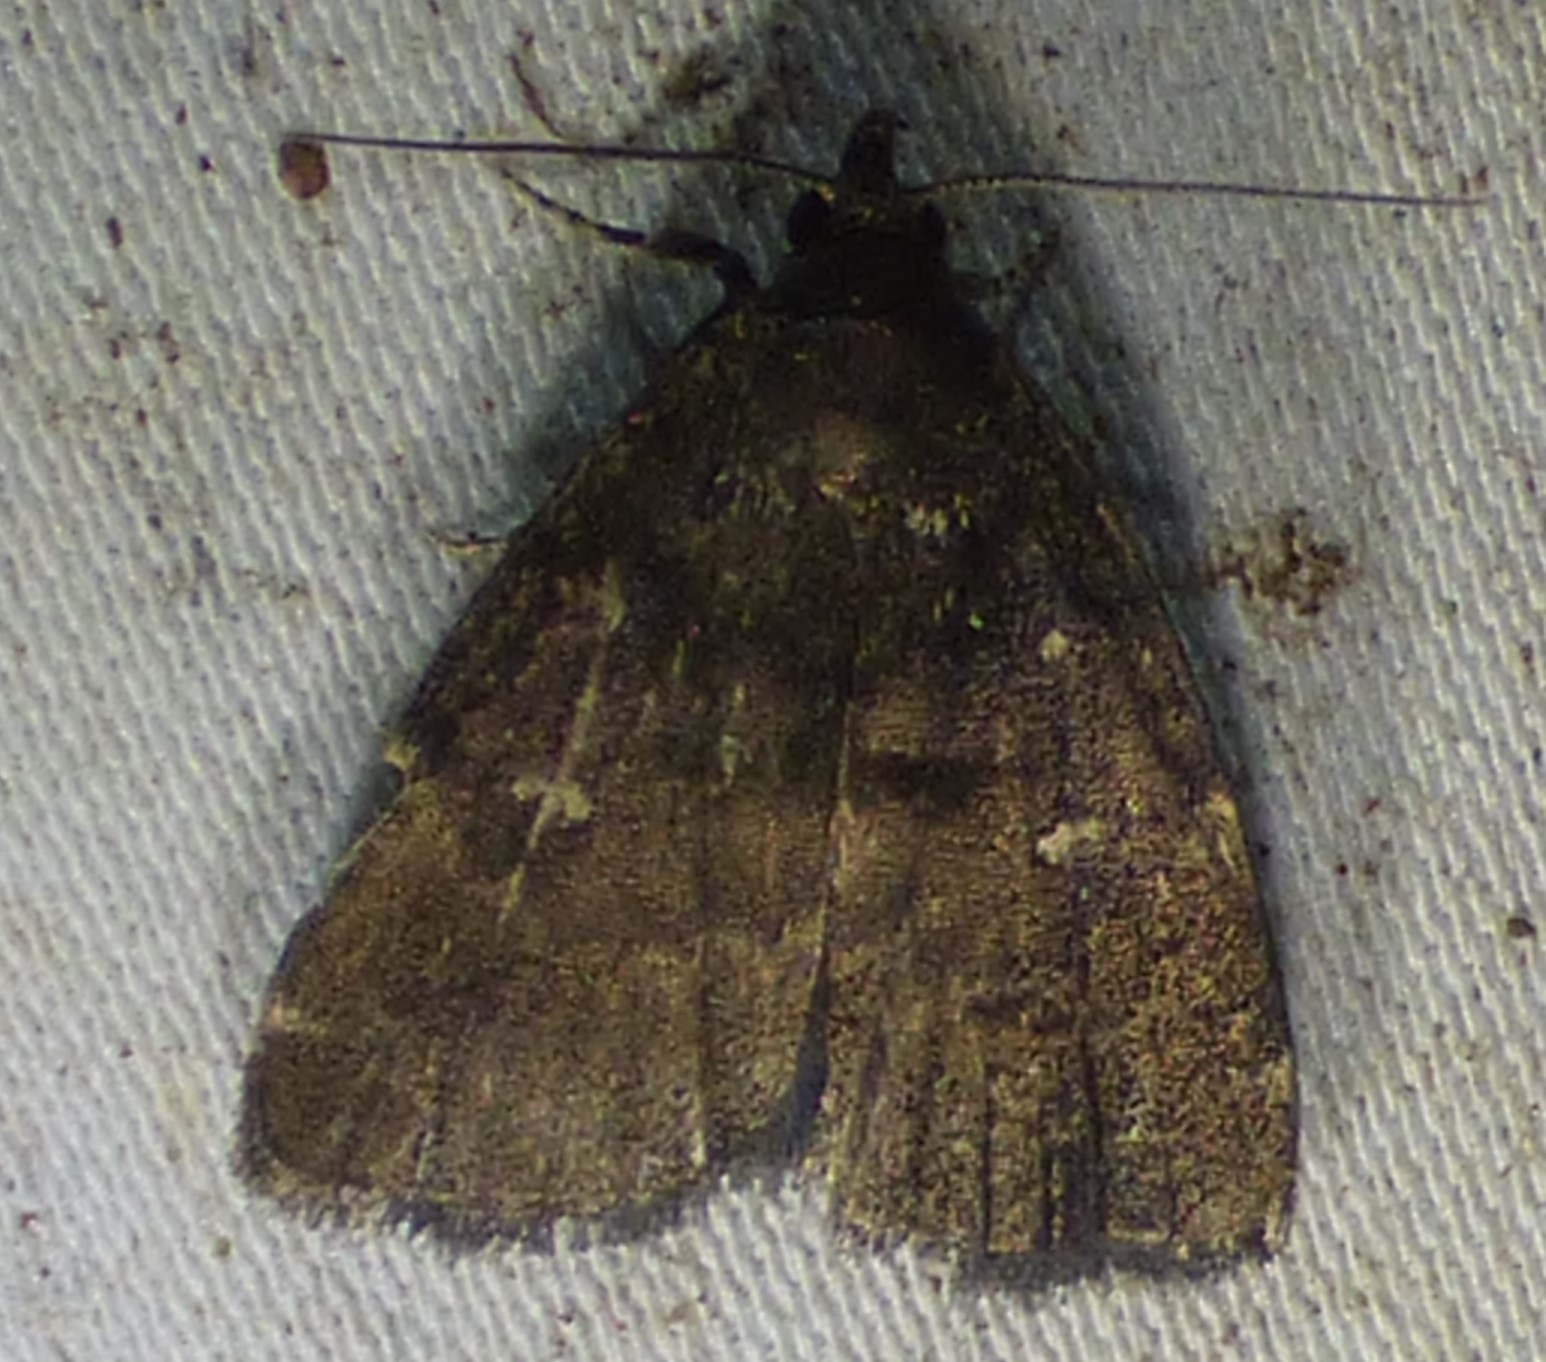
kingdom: Animalia
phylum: Arthropoda
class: Insecta
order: Lepidoptera
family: Erebidae
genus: Idia
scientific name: Idia julia
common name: Julia's idia moth
